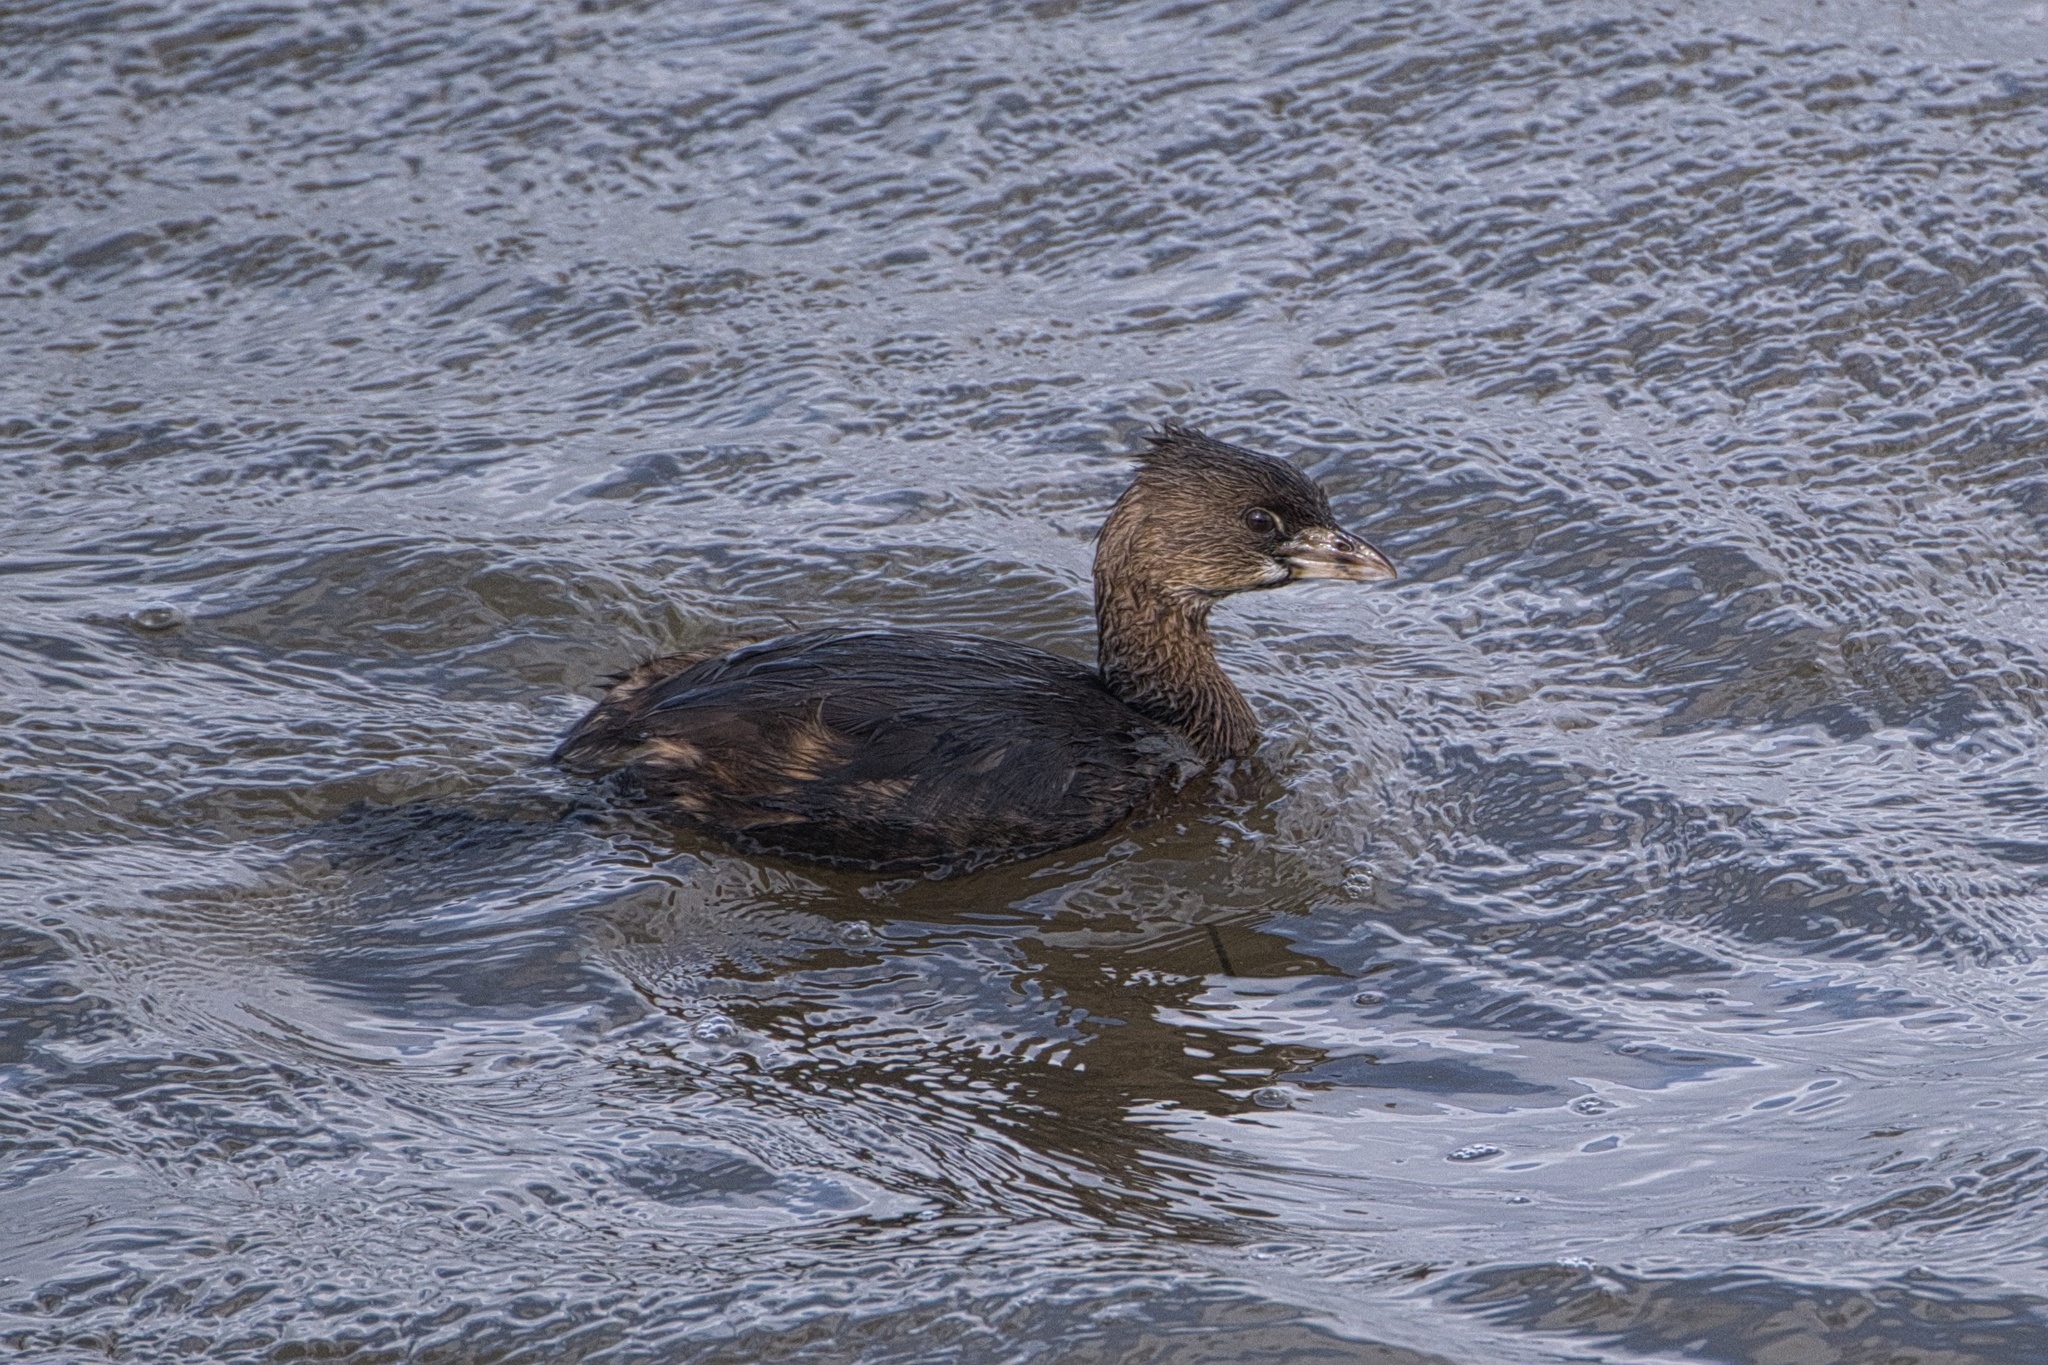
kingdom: Animalia
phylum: Chordata
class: Aves
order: Podicipediformes
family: Podicipedidae
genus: Podilymbus
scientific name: Podilymbus podiceps
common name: Pied-billed grebe
